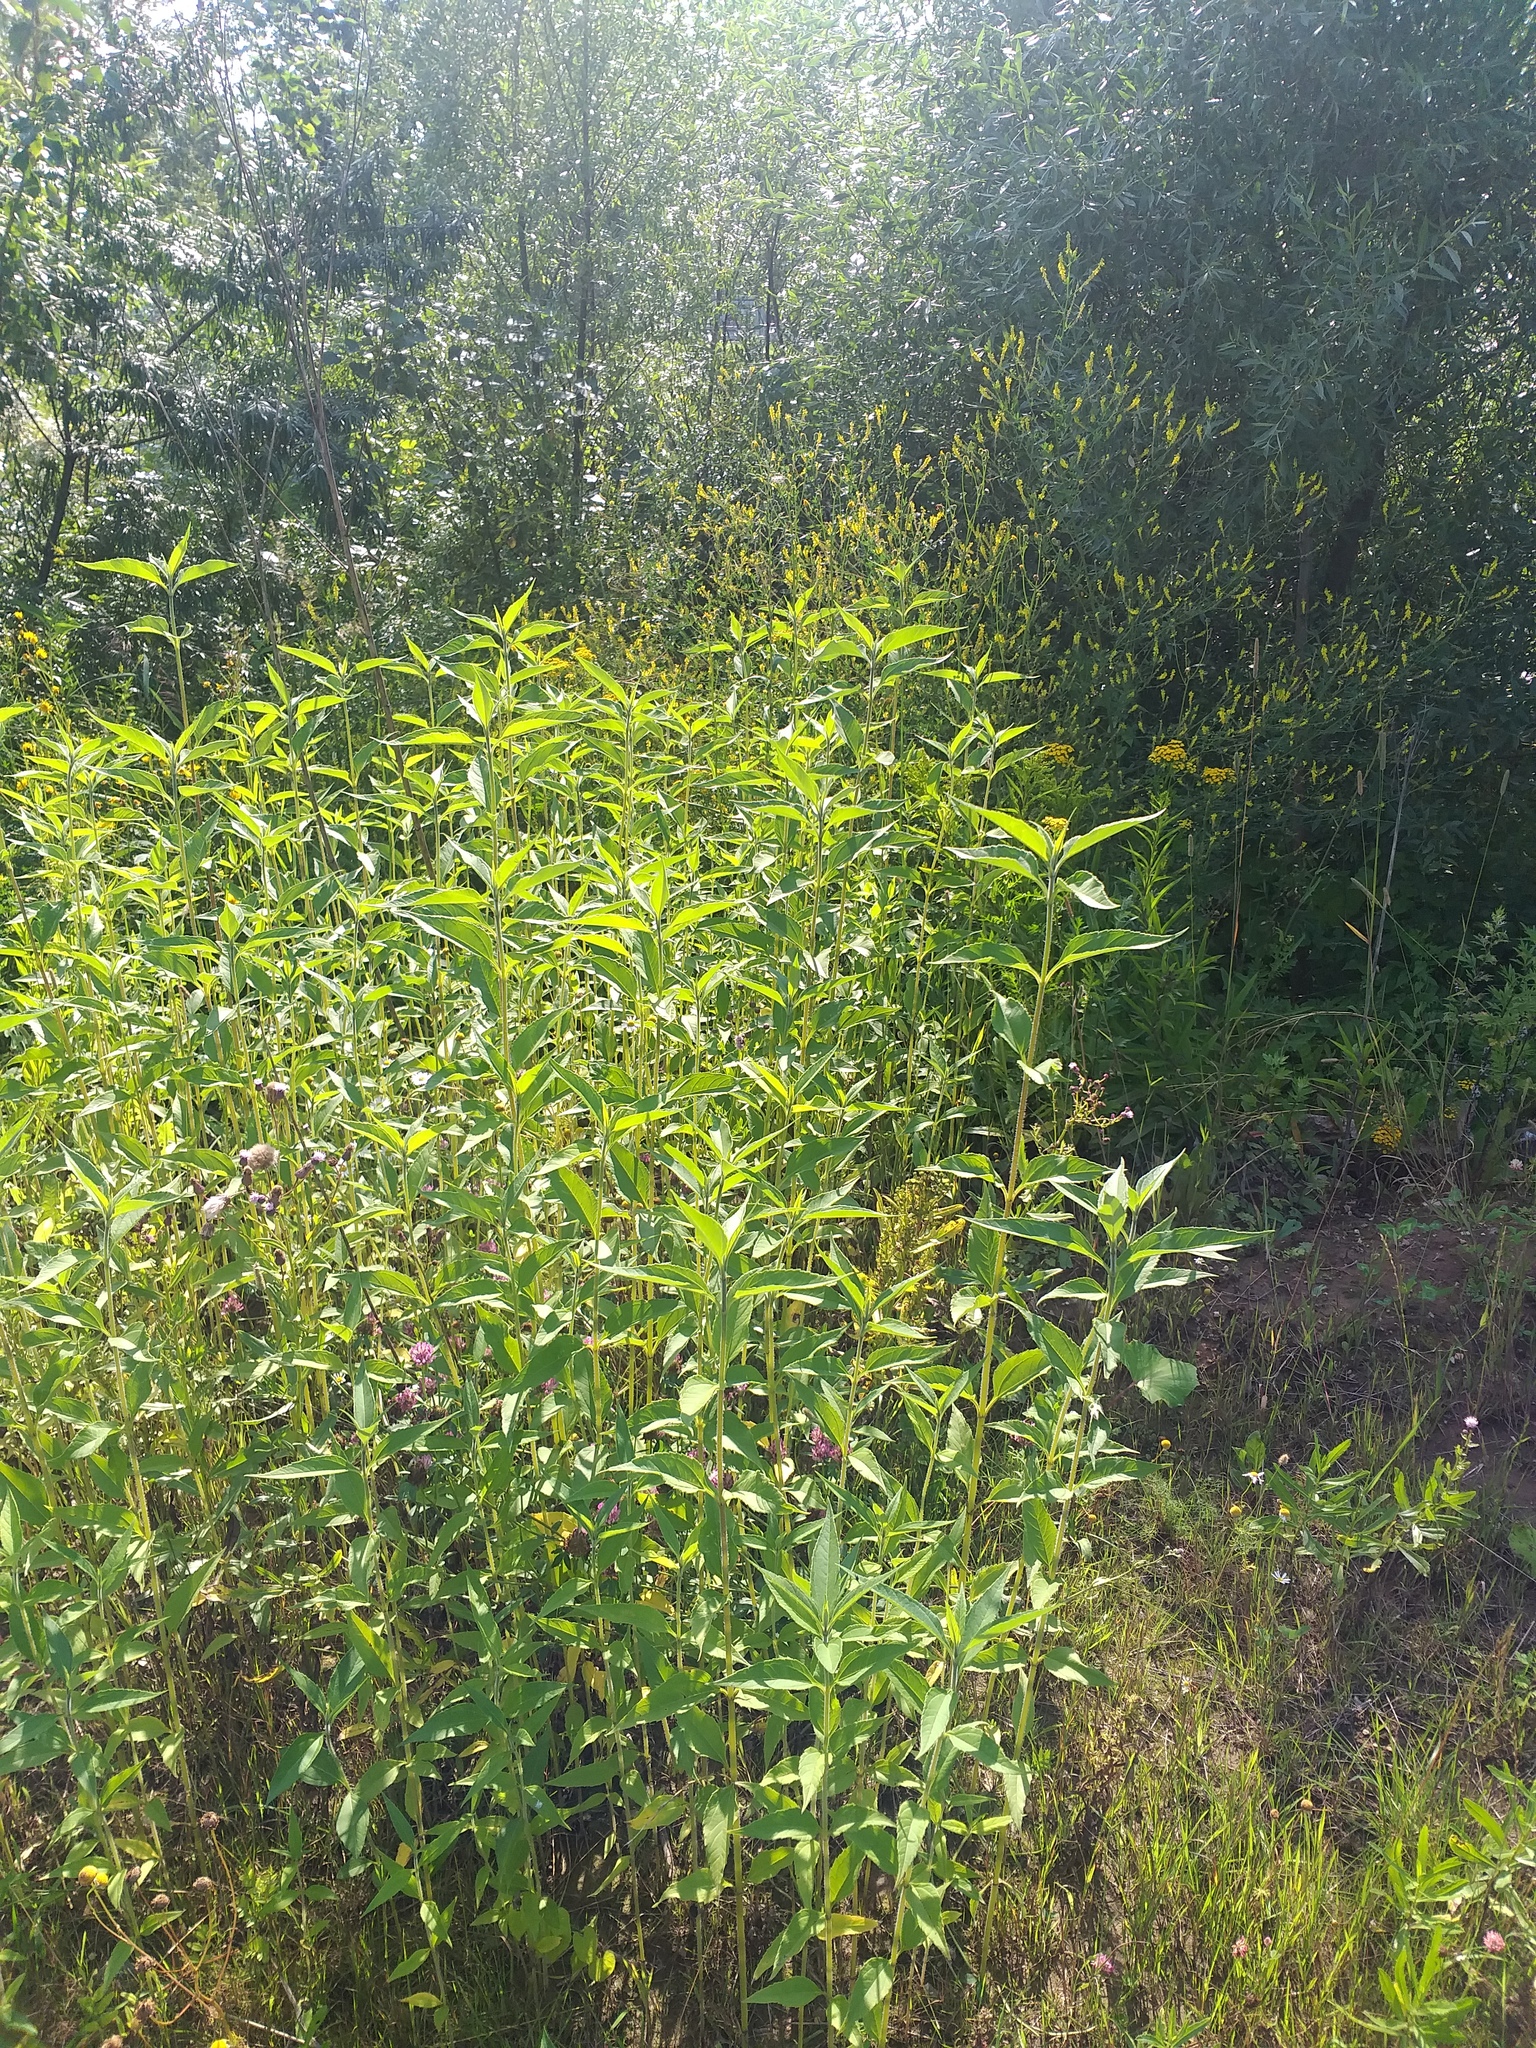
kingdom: Plantae
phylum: Tracheophyta
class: Magnoliopsida
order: Asterales
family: Asteraceae
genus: Helianthus
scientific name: Helianthus tuberosus
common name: Jerusalem artichoke
